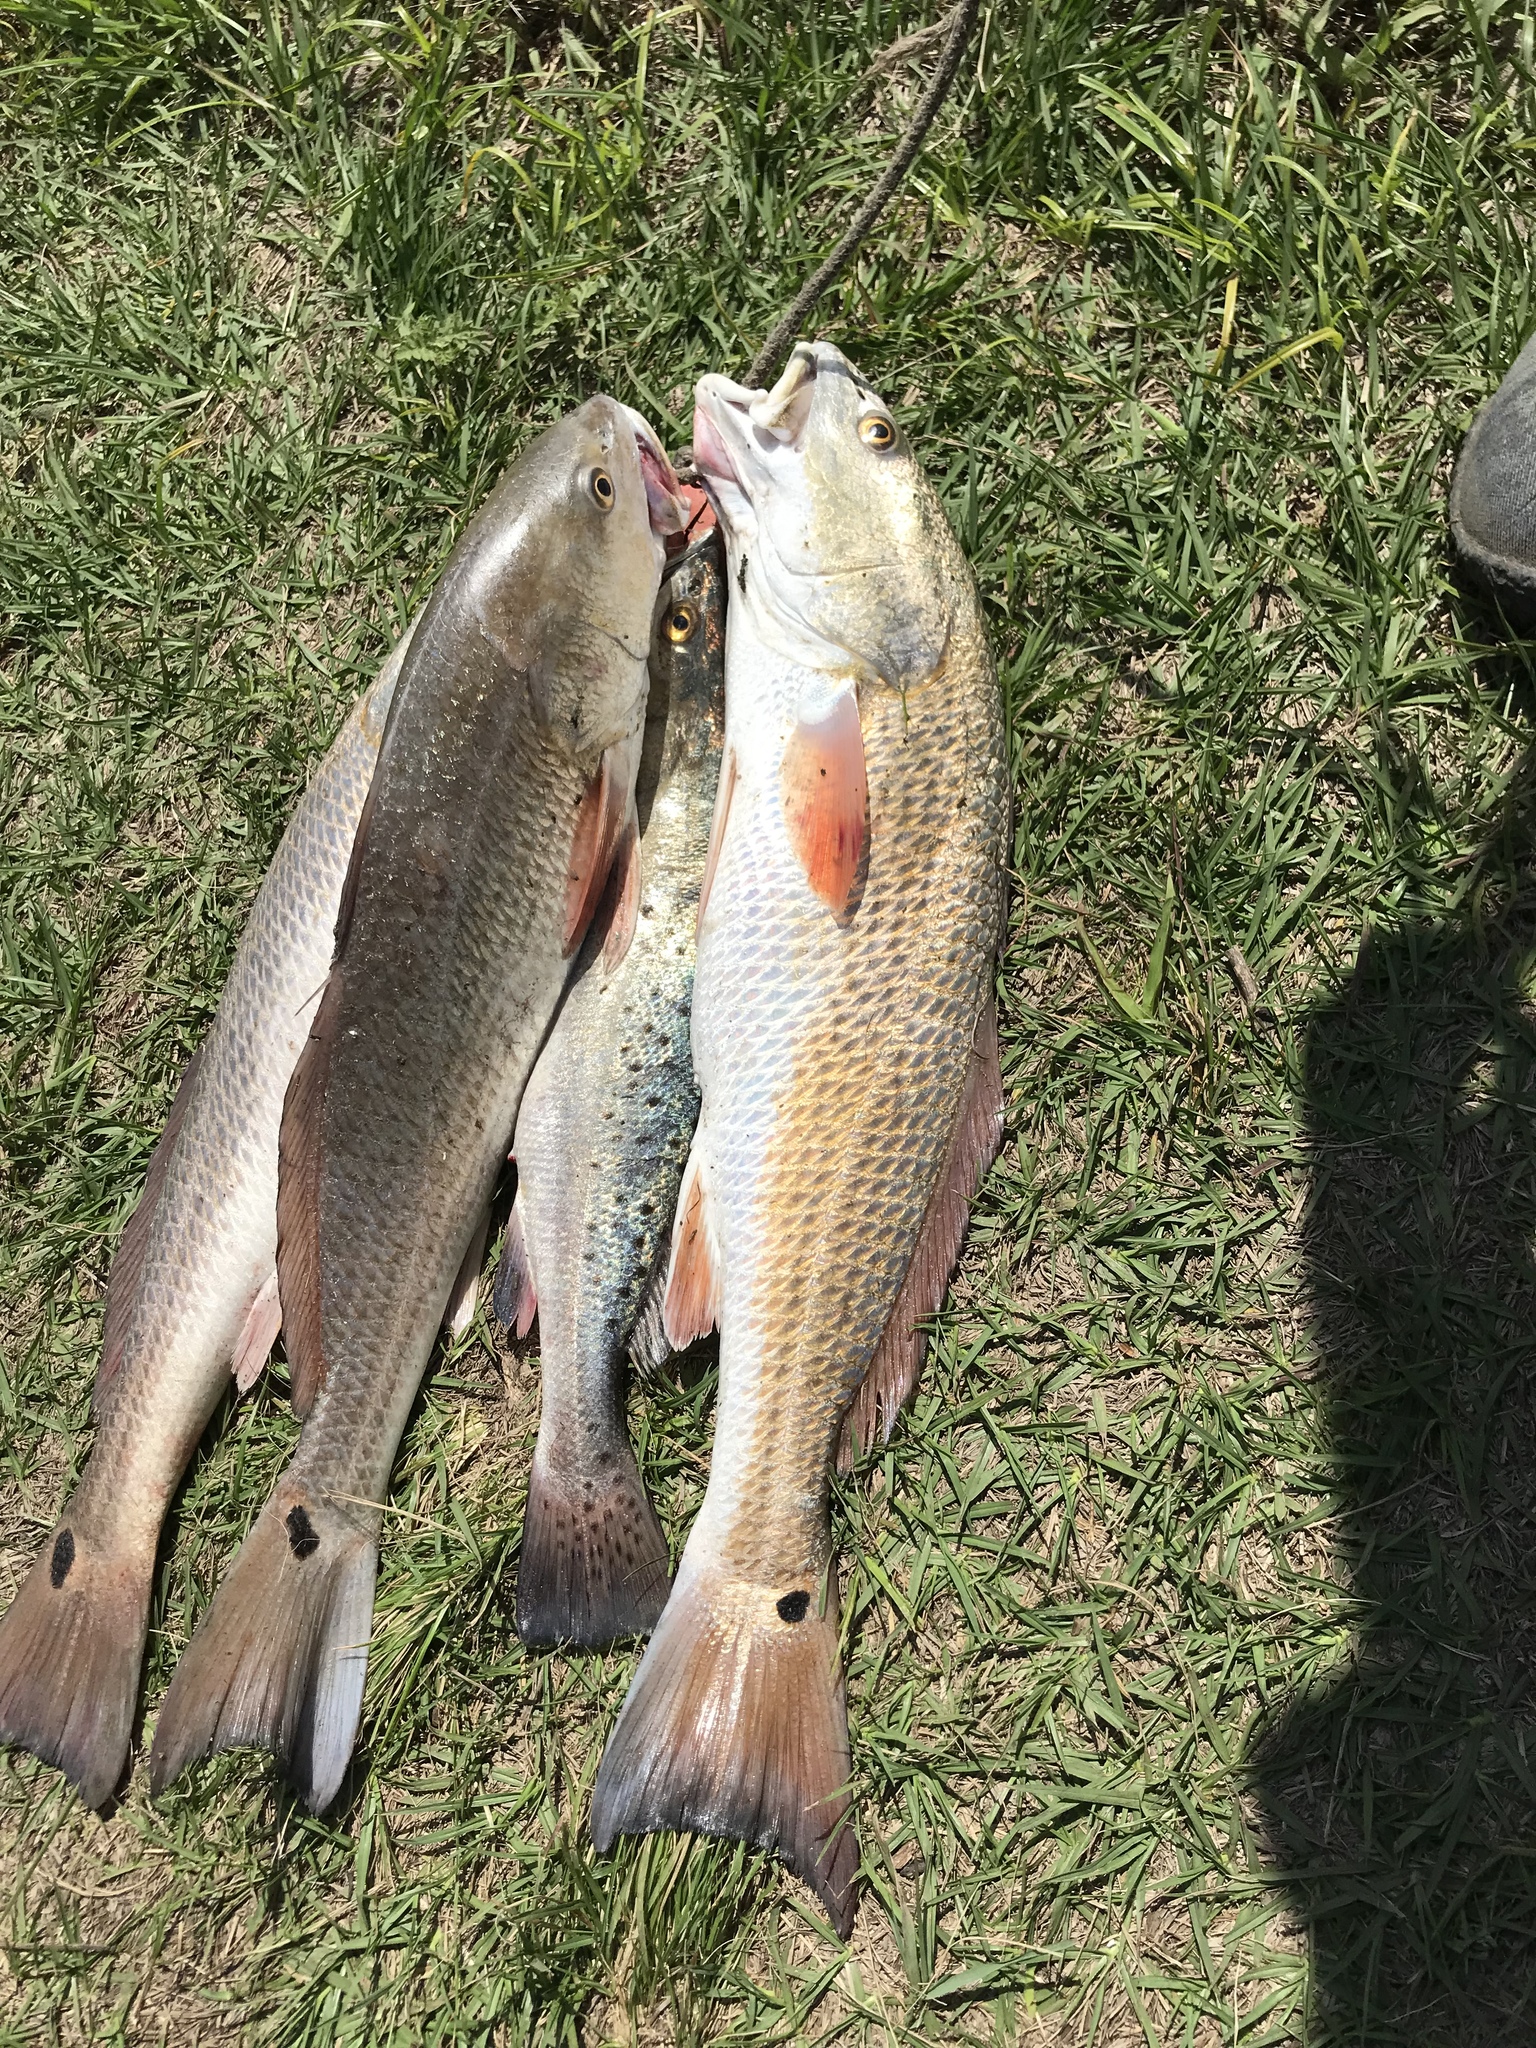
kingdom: Animalia
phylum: Chordata
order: Perciformes
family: Sciaenidae
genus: Sciaenops
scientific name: Sciaenops ocellatus
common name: Red drum
